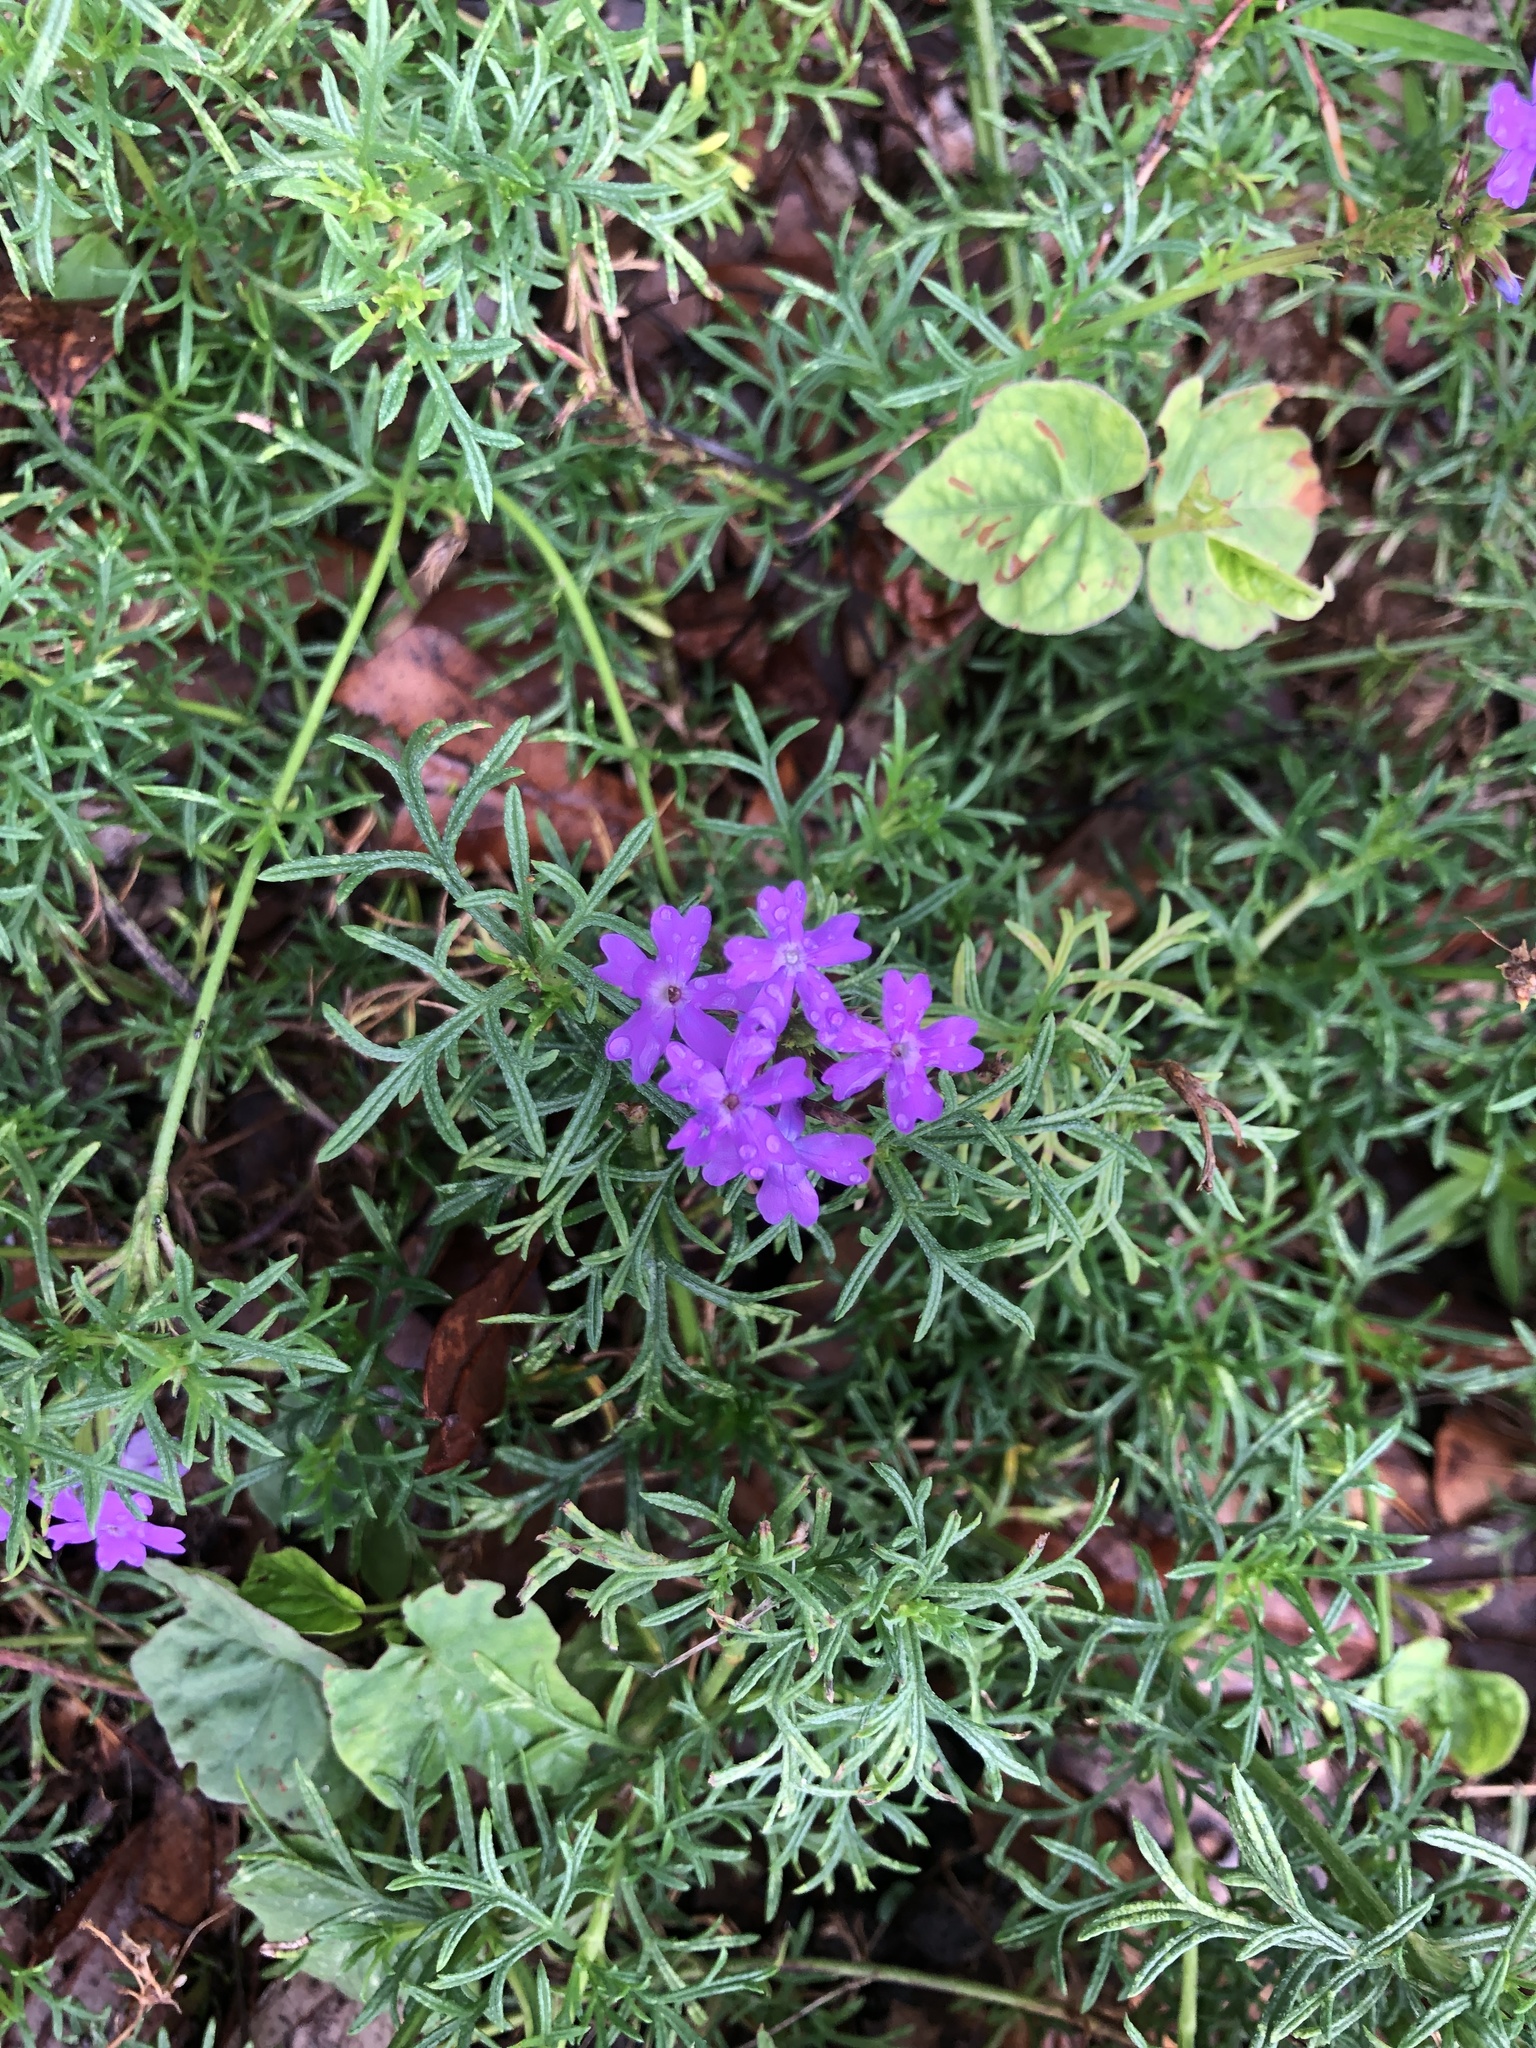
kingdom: Plantae
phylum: Tracheophyta
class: Magnoliopsida
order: Lamiales
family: Verbenaceae
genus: Verbena
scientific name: Verbena aristigera
